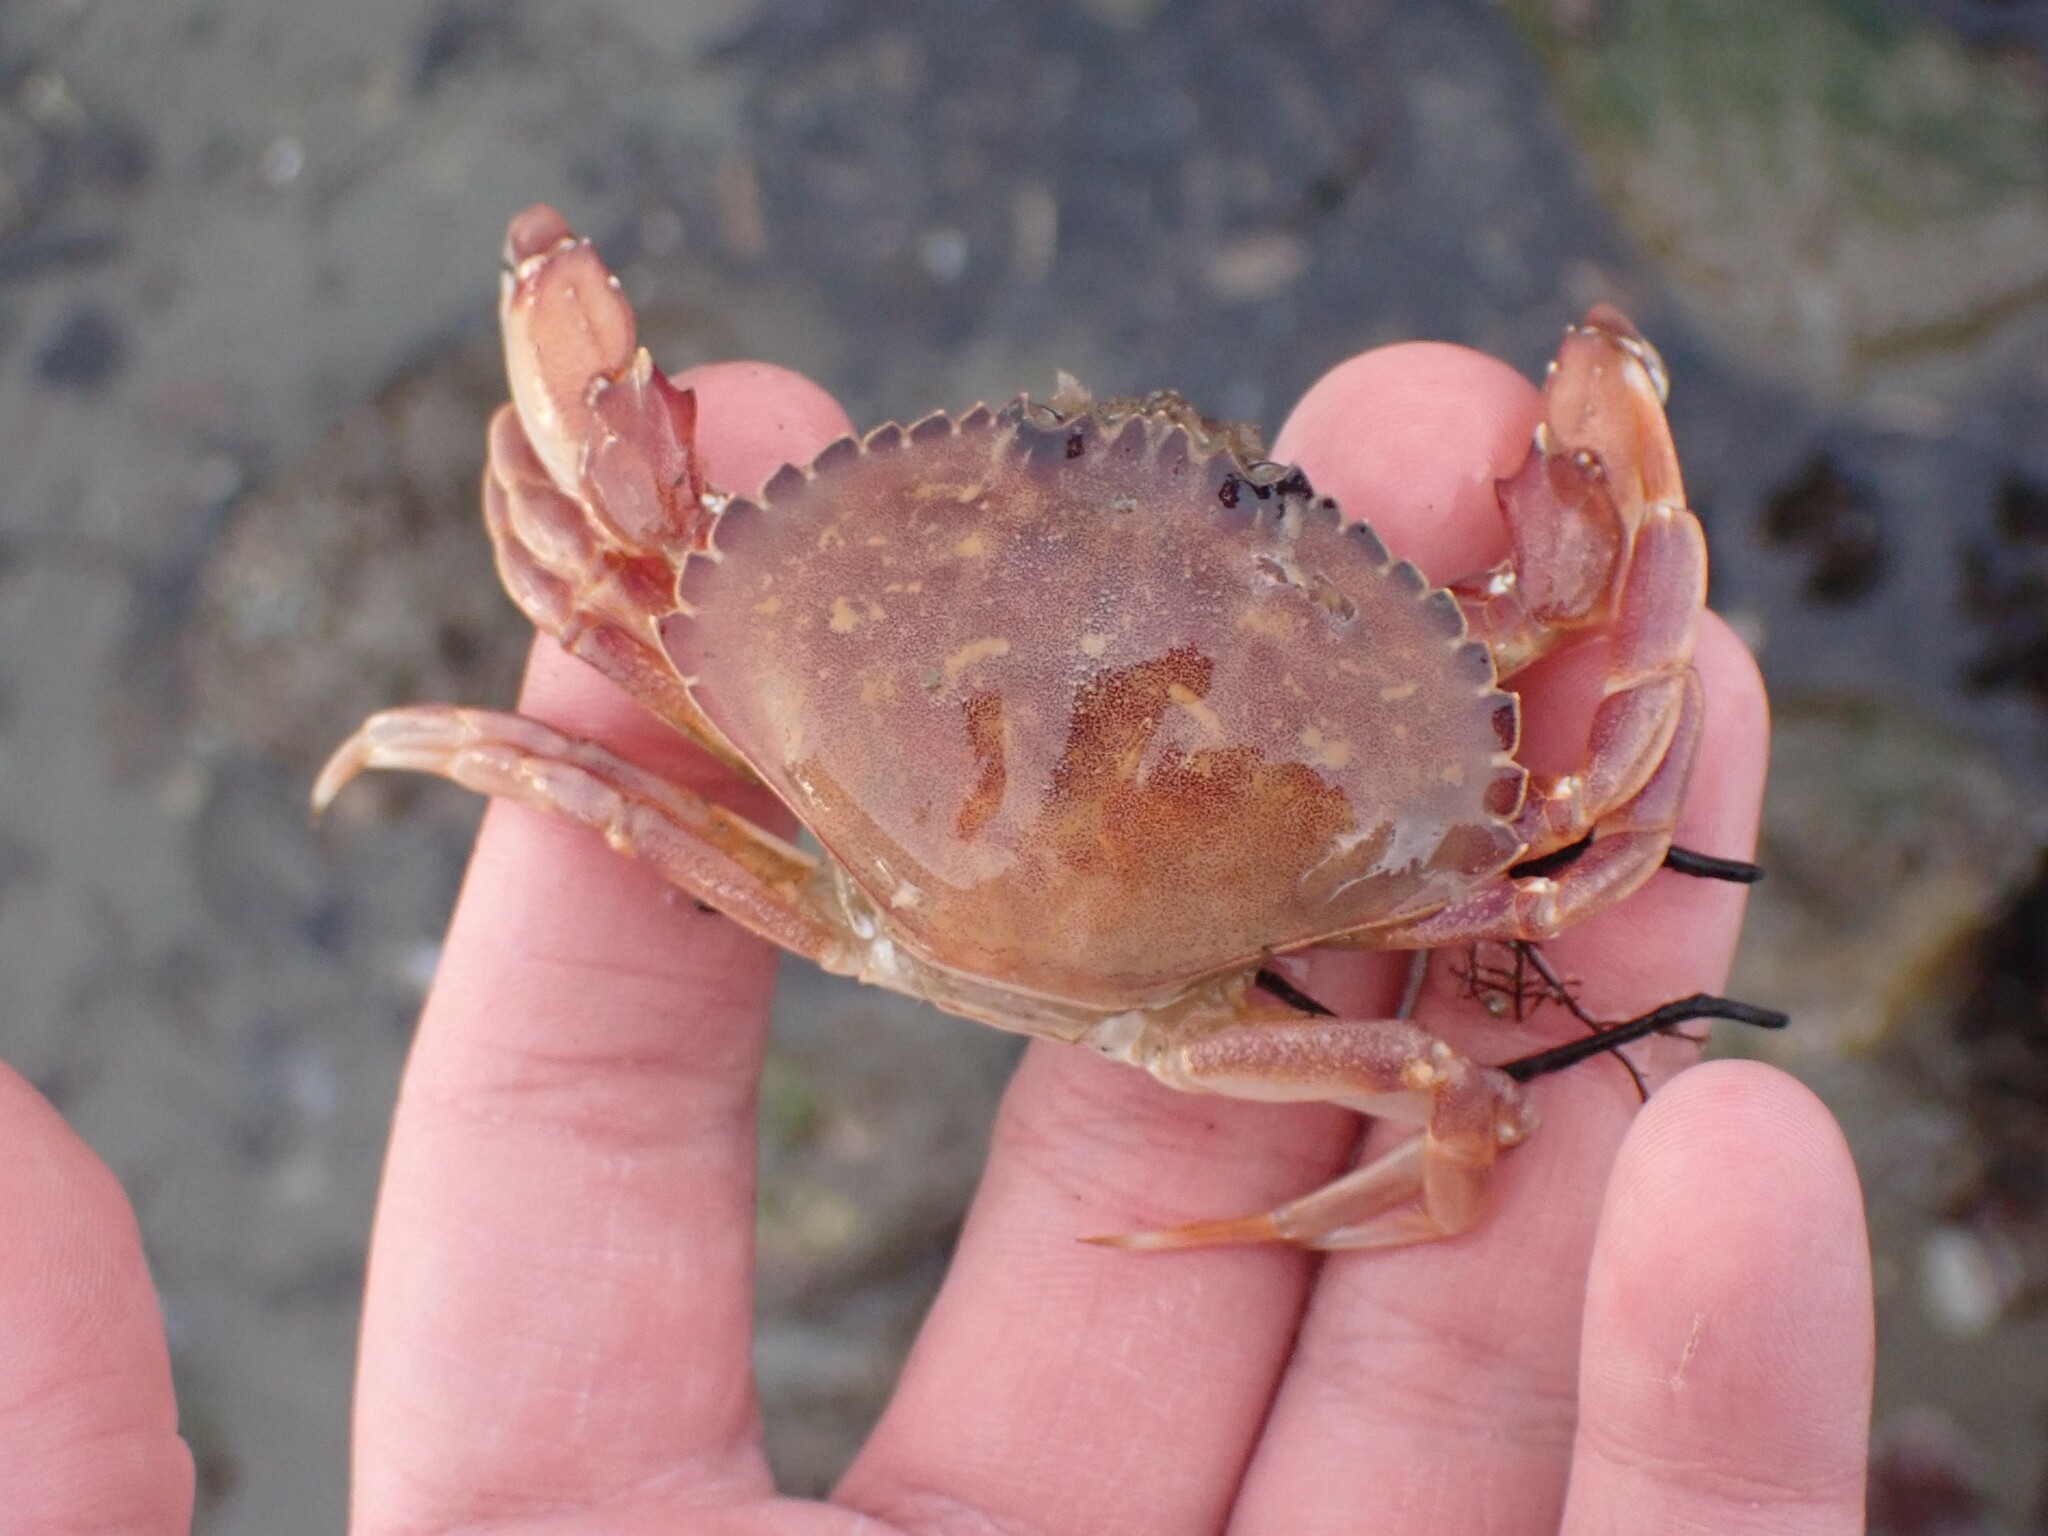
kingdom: Animalia
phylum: Arthropoda
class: Malacostraca
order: Decapoda
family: Cancridae
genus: Metacarcinus
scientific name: Metacarcinus gracilis
